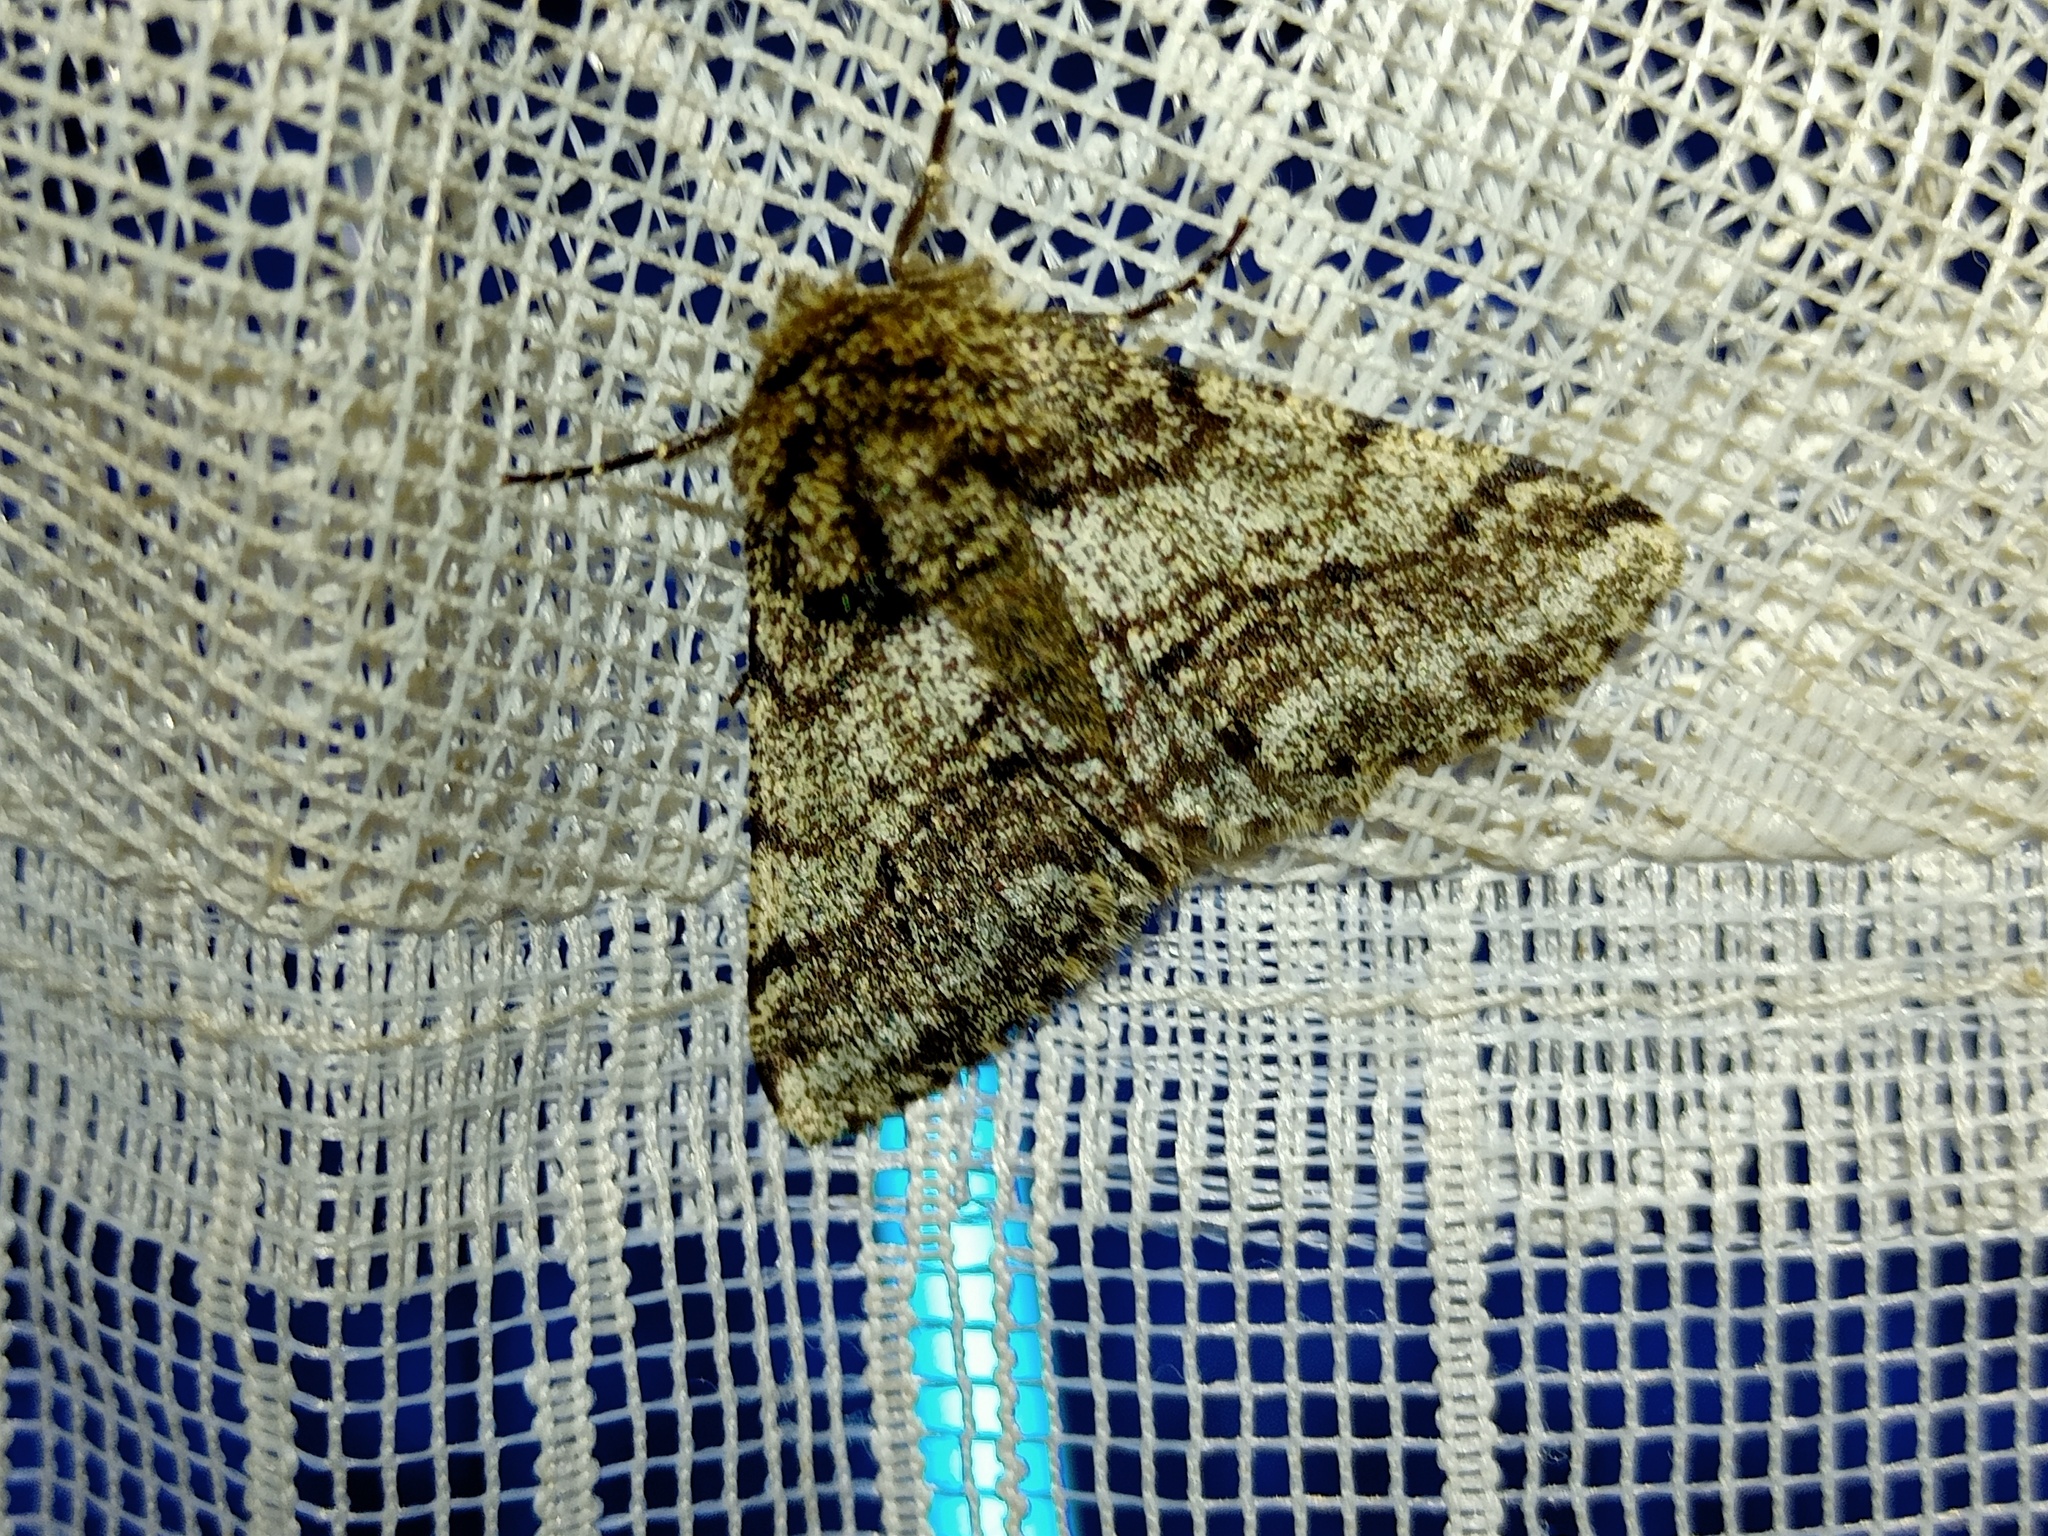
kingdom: Animalia
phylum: Arthropoda
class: Insecta
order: Lepidoptera
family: Geometridae
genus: Lycia
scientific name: Lycia hirtaria
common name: Brindled beauty
